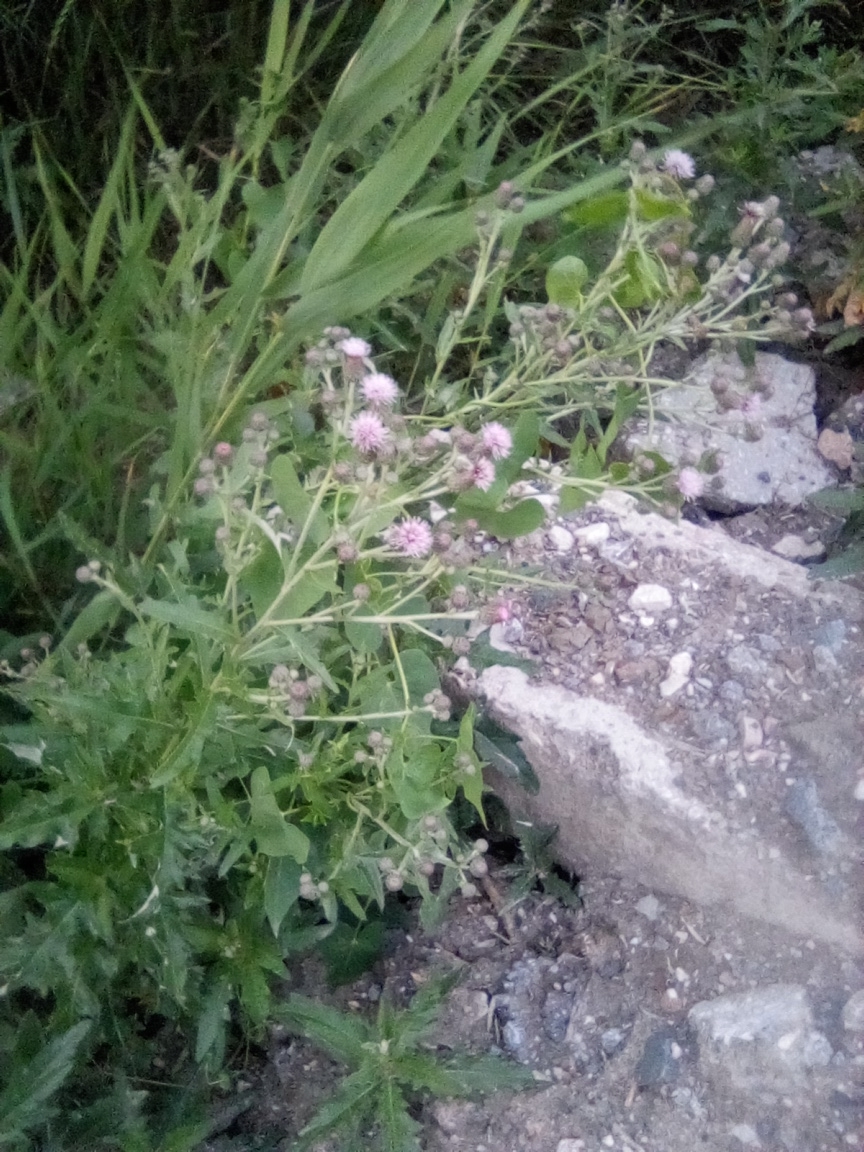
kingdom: Plantae
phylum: Tracheophyta
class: Magnoliopsida
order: Asterales
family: Asteraceae
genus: Cirsium
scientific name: Cirsium arvense
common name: Creeping thistle
